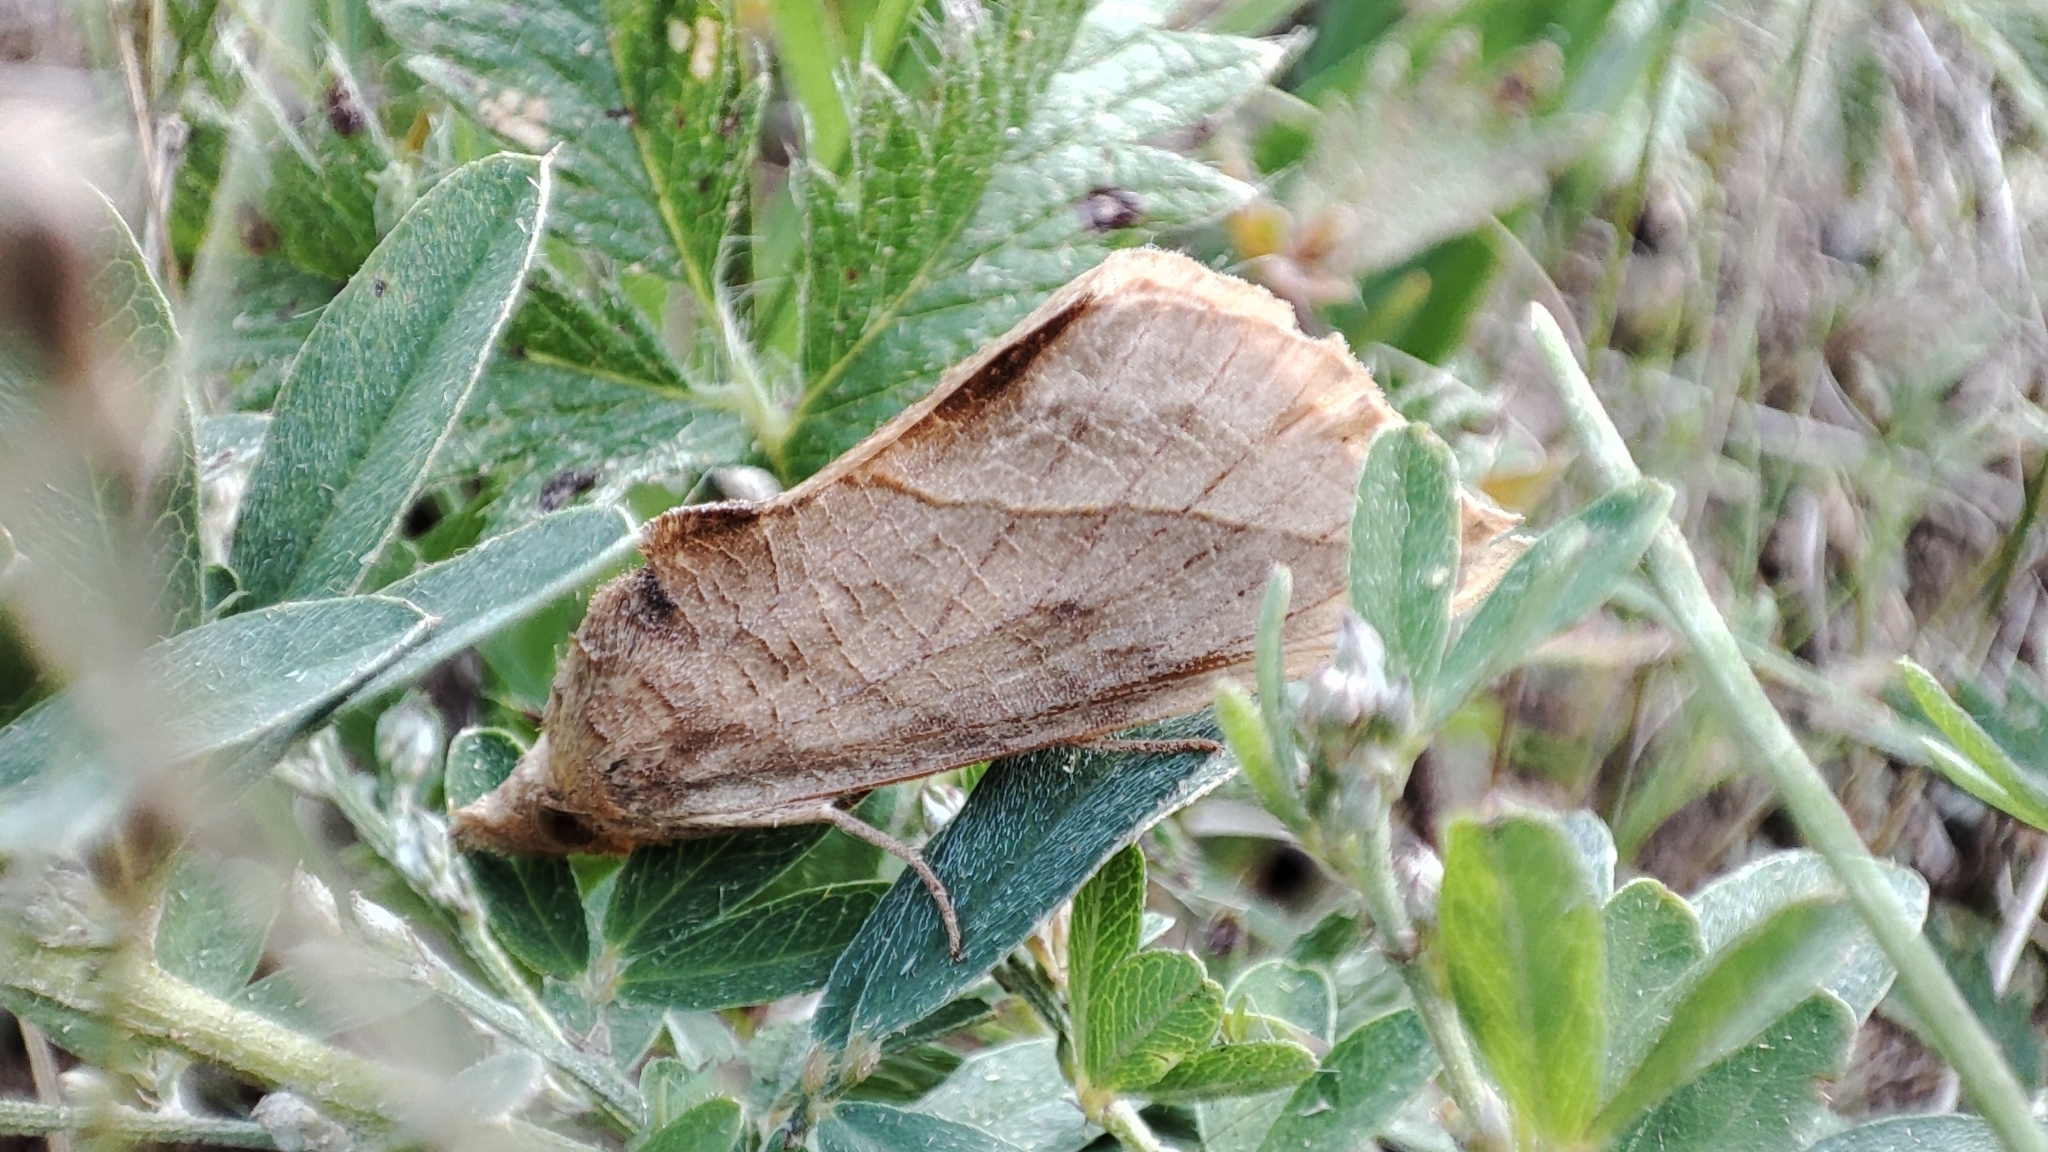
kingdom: Animalia
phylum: Arthropoda
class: Insecta
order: Lepidoptera
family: Erebidae
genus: Calyptra
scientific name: Calyptra thalictri
